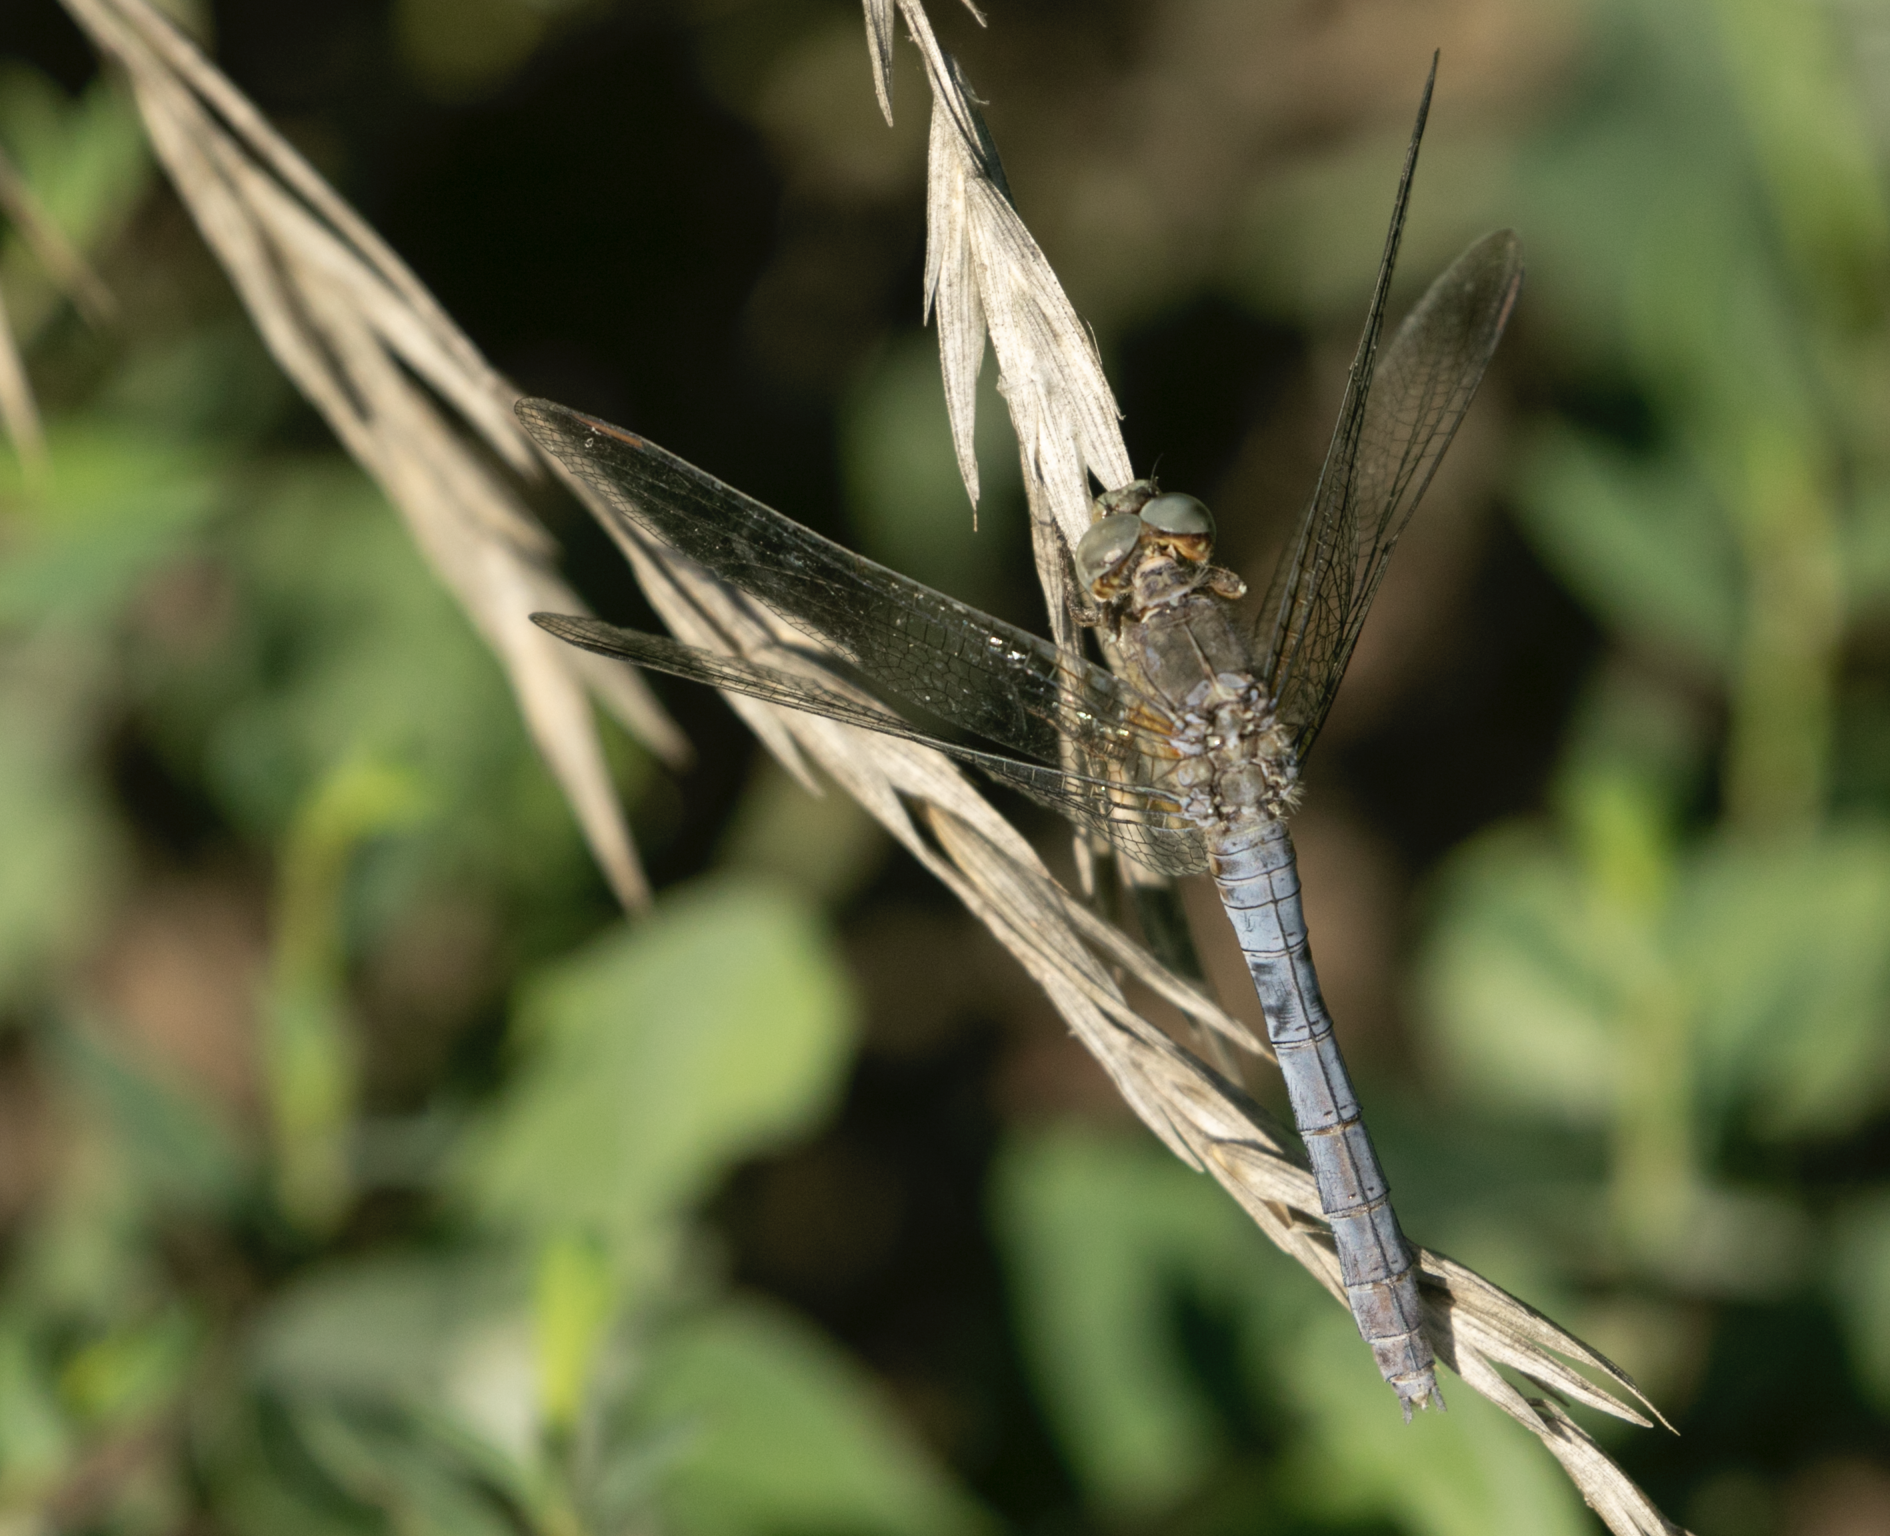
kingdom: Animalia
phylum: Arthropoda
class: Insecta
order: Odonata
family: Libellulidae
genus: Orthetrum
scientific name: Orthetrum coerulescens
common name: Keeled skimmer
